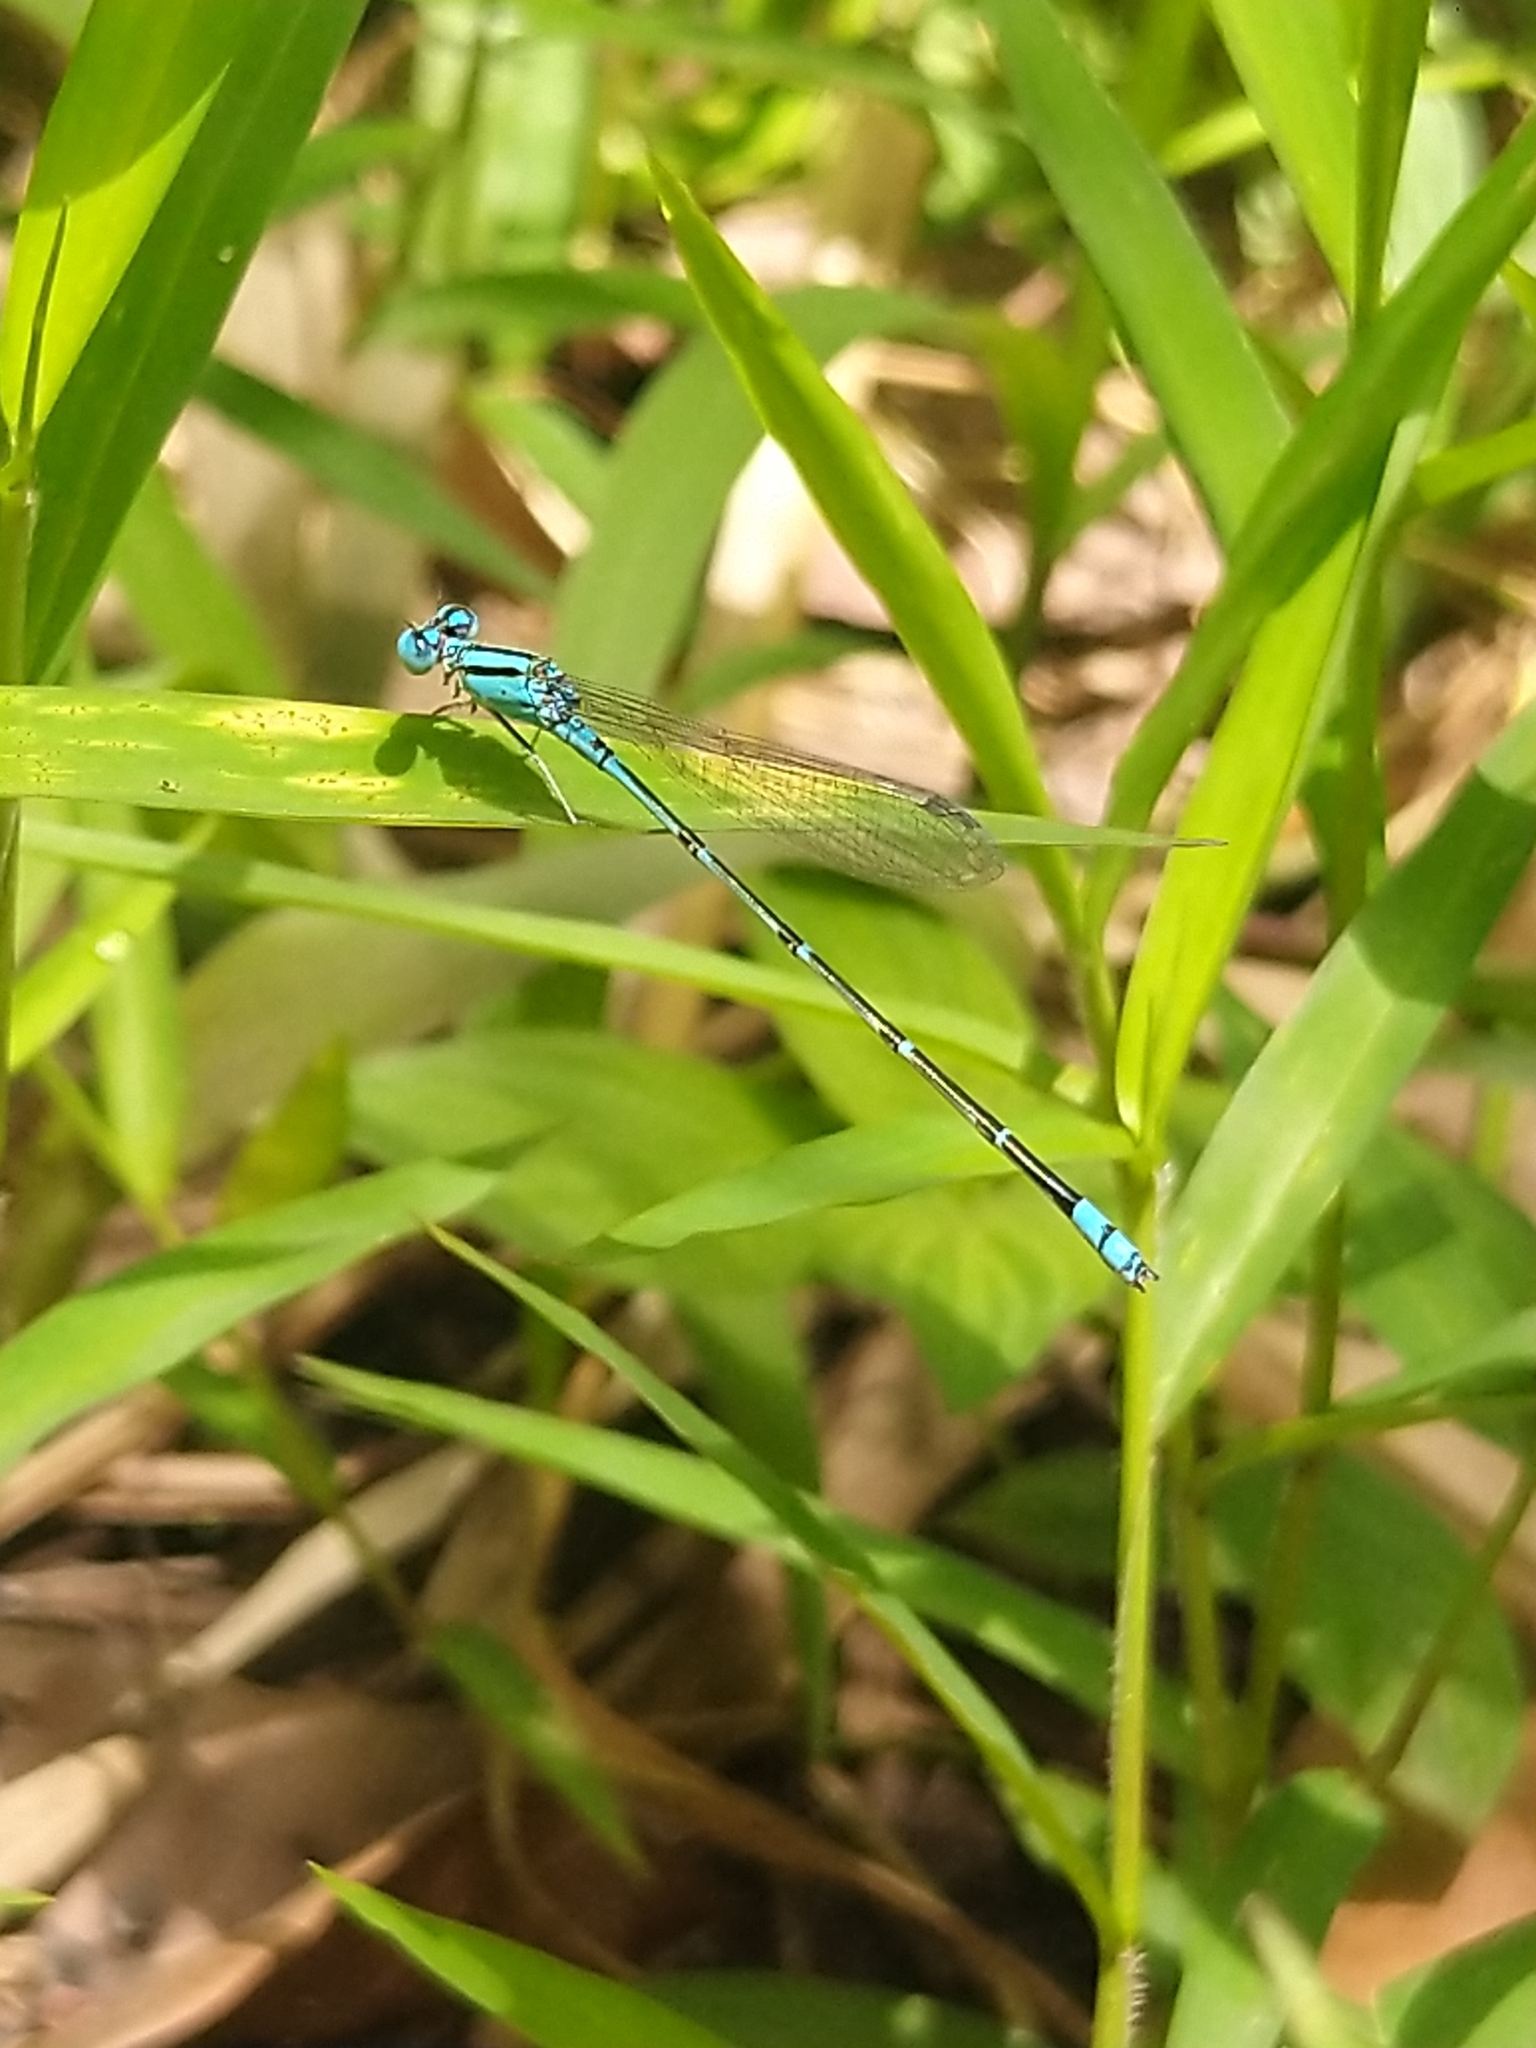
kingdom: Animalia
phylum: Arthropoda
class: Insecta
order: Odonata
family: Coenagrionidae
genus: Pseudagrion
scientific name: Pseudagrion microcephalum
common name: Blue riverdamsel
